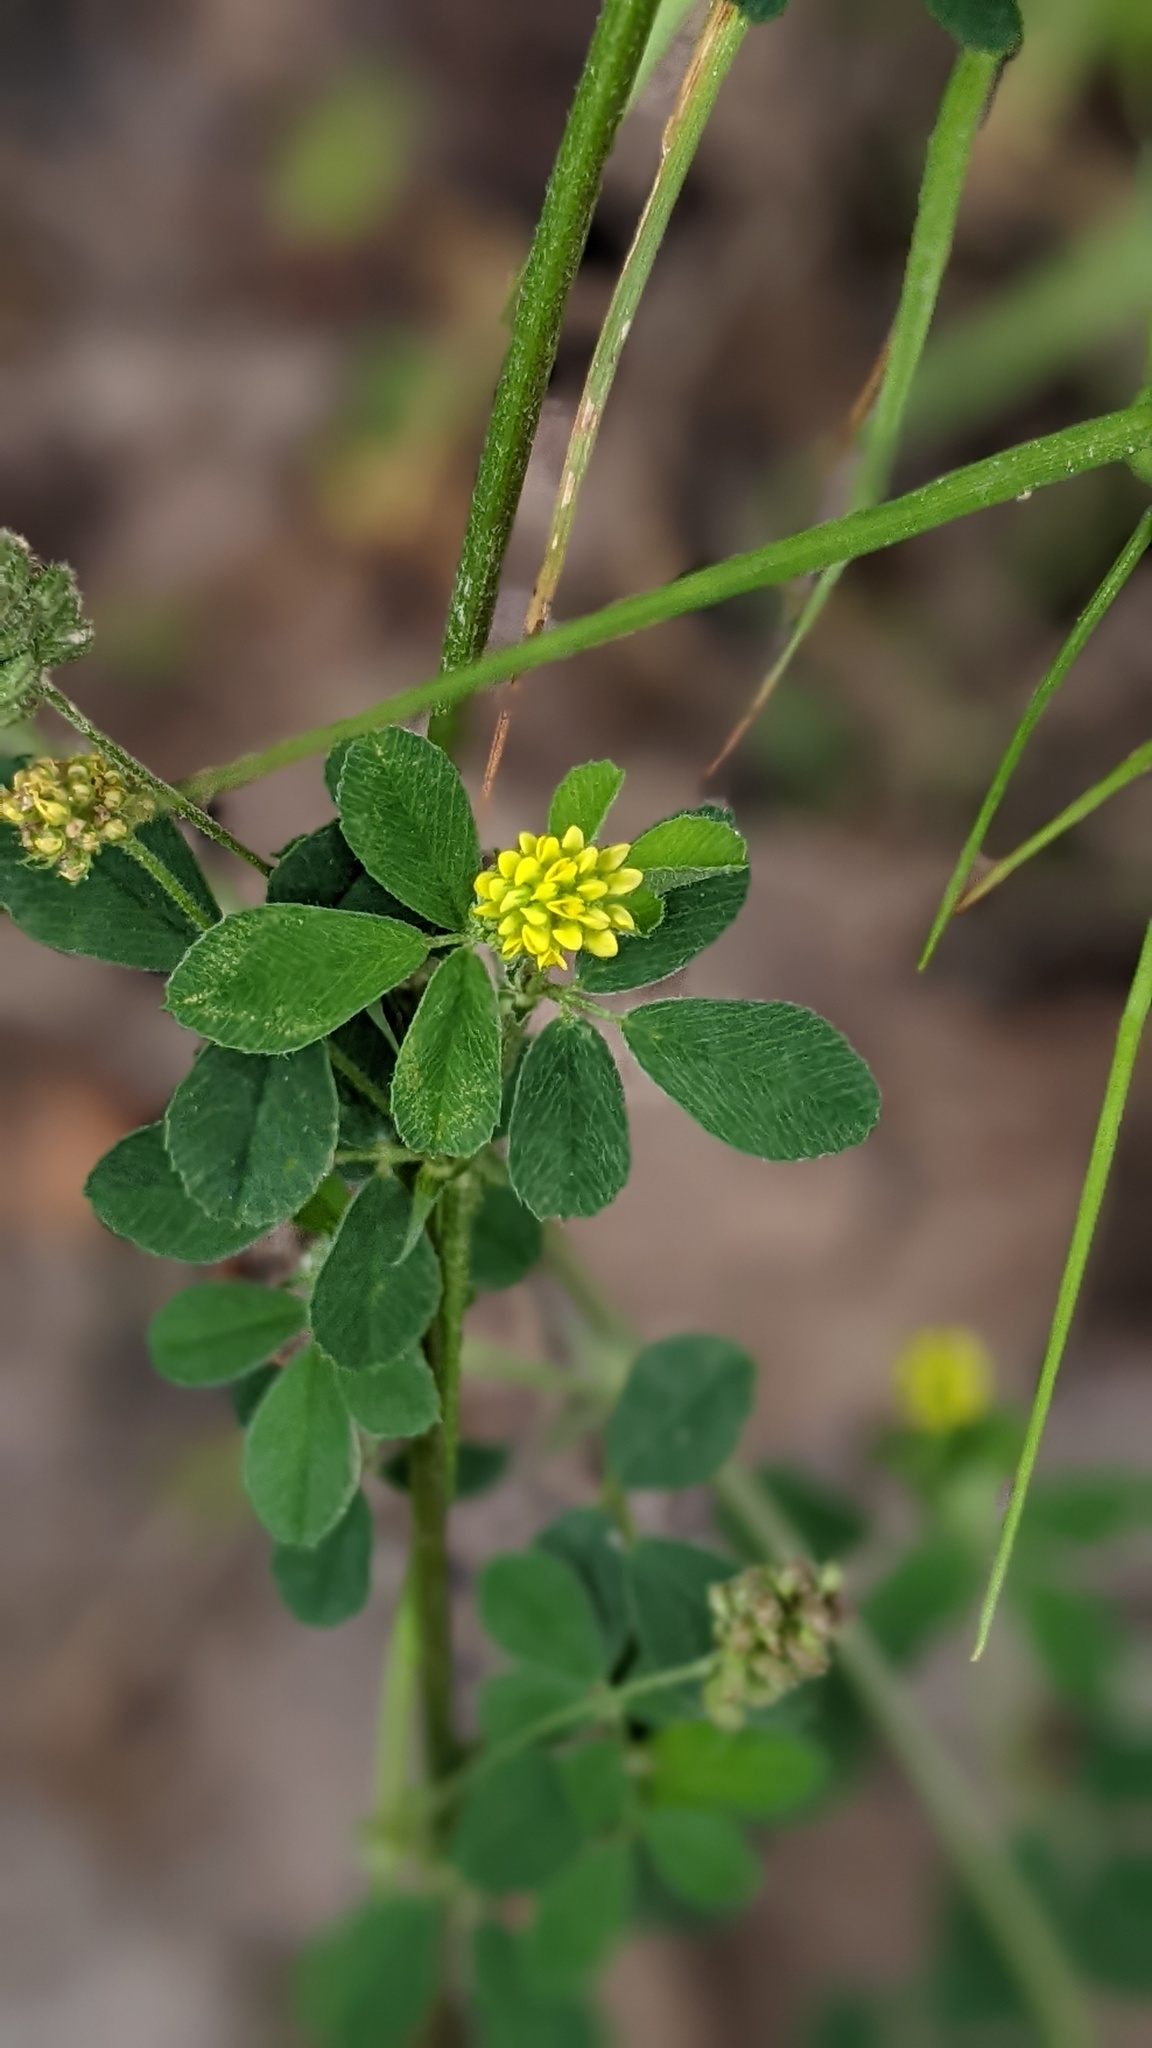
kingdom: Plantae
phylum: Tracheophyta
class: Magnoliopsida
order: Fabales
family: Fabaceae
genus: Medicago
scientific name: Medicago lupulina
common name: Black medick
